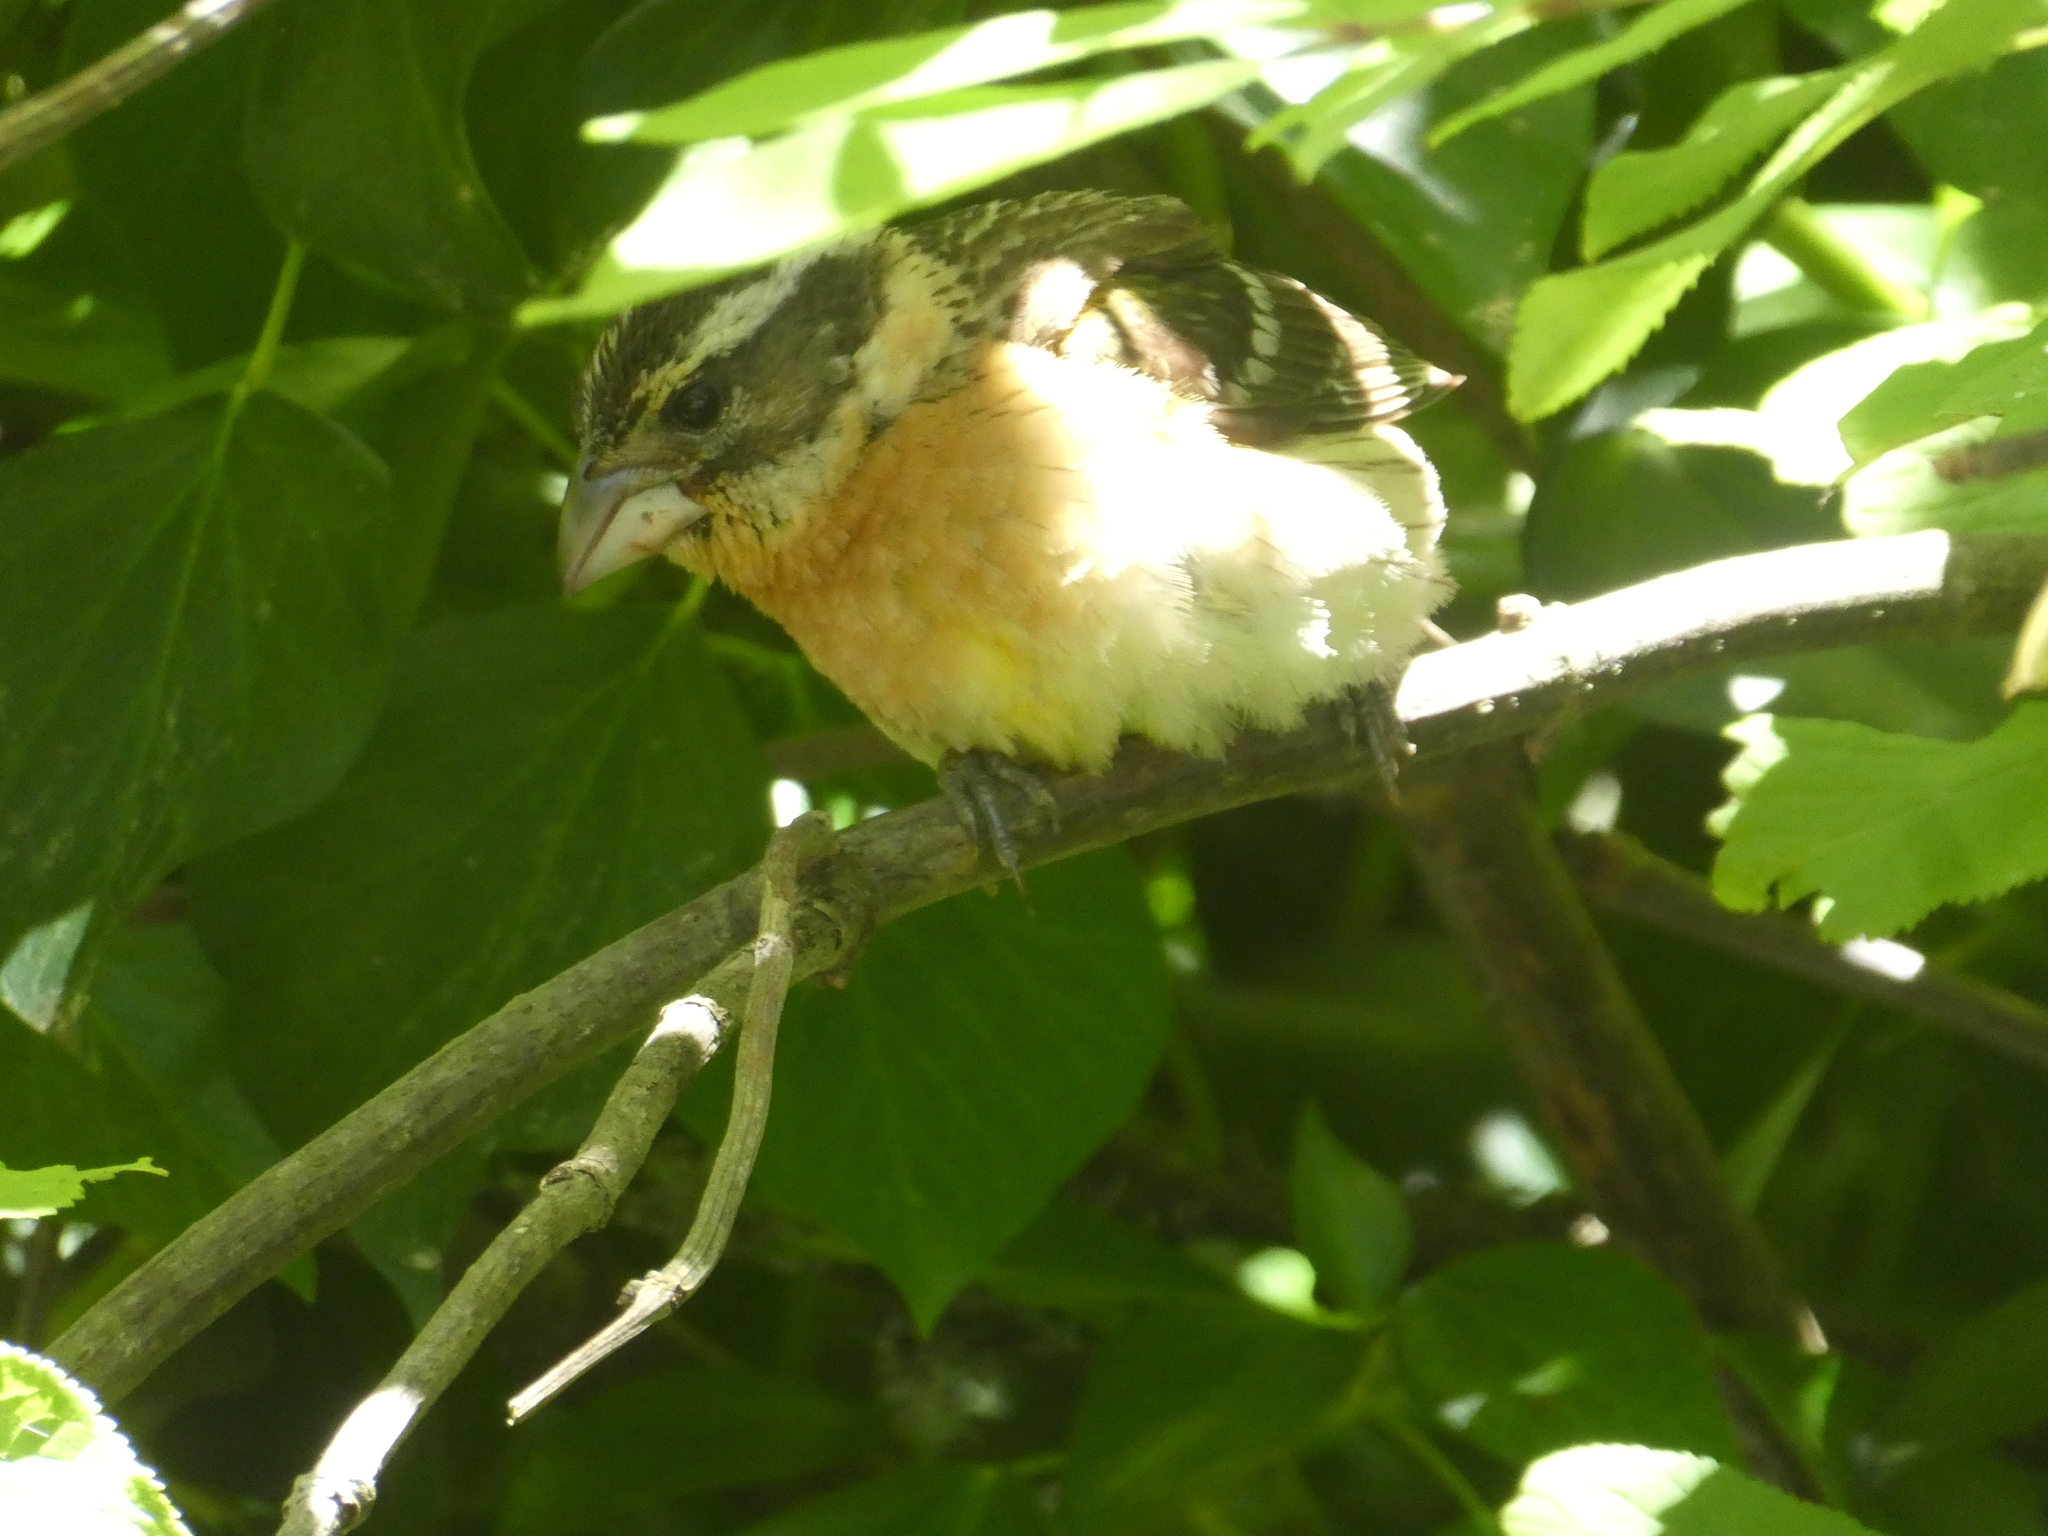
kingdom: Animalia
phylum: Chordata
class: Aves
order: Passeriformes
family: Cardinalidae
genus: Pheucticus
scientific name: Pheucticus melanocephalus
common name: Black-headed grosbeak
